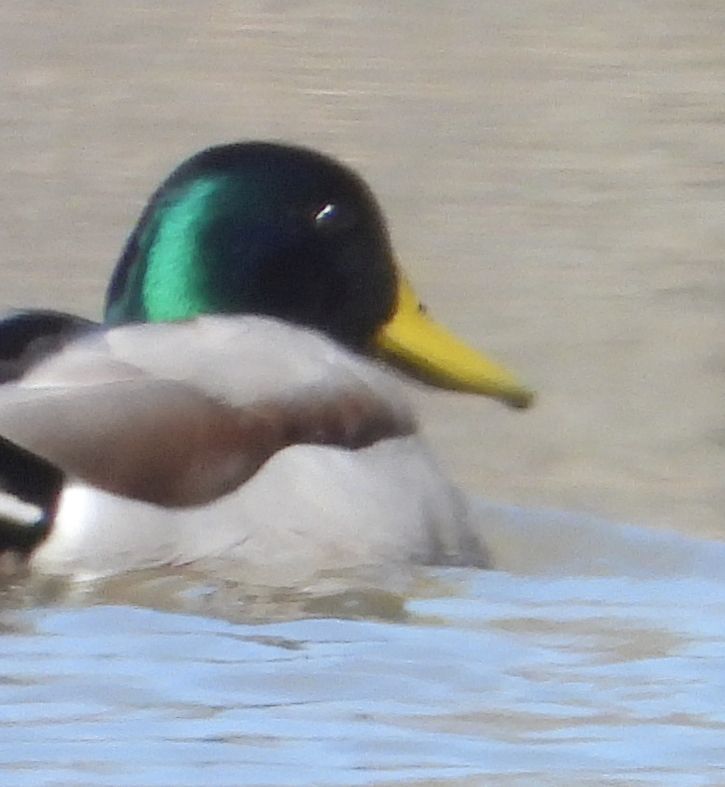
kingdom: Animalia
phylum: Chordata
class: Aves
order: Anseriformes
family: Anatidae
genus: Anas
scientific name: Anas platyrhynchos
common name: Mallard
